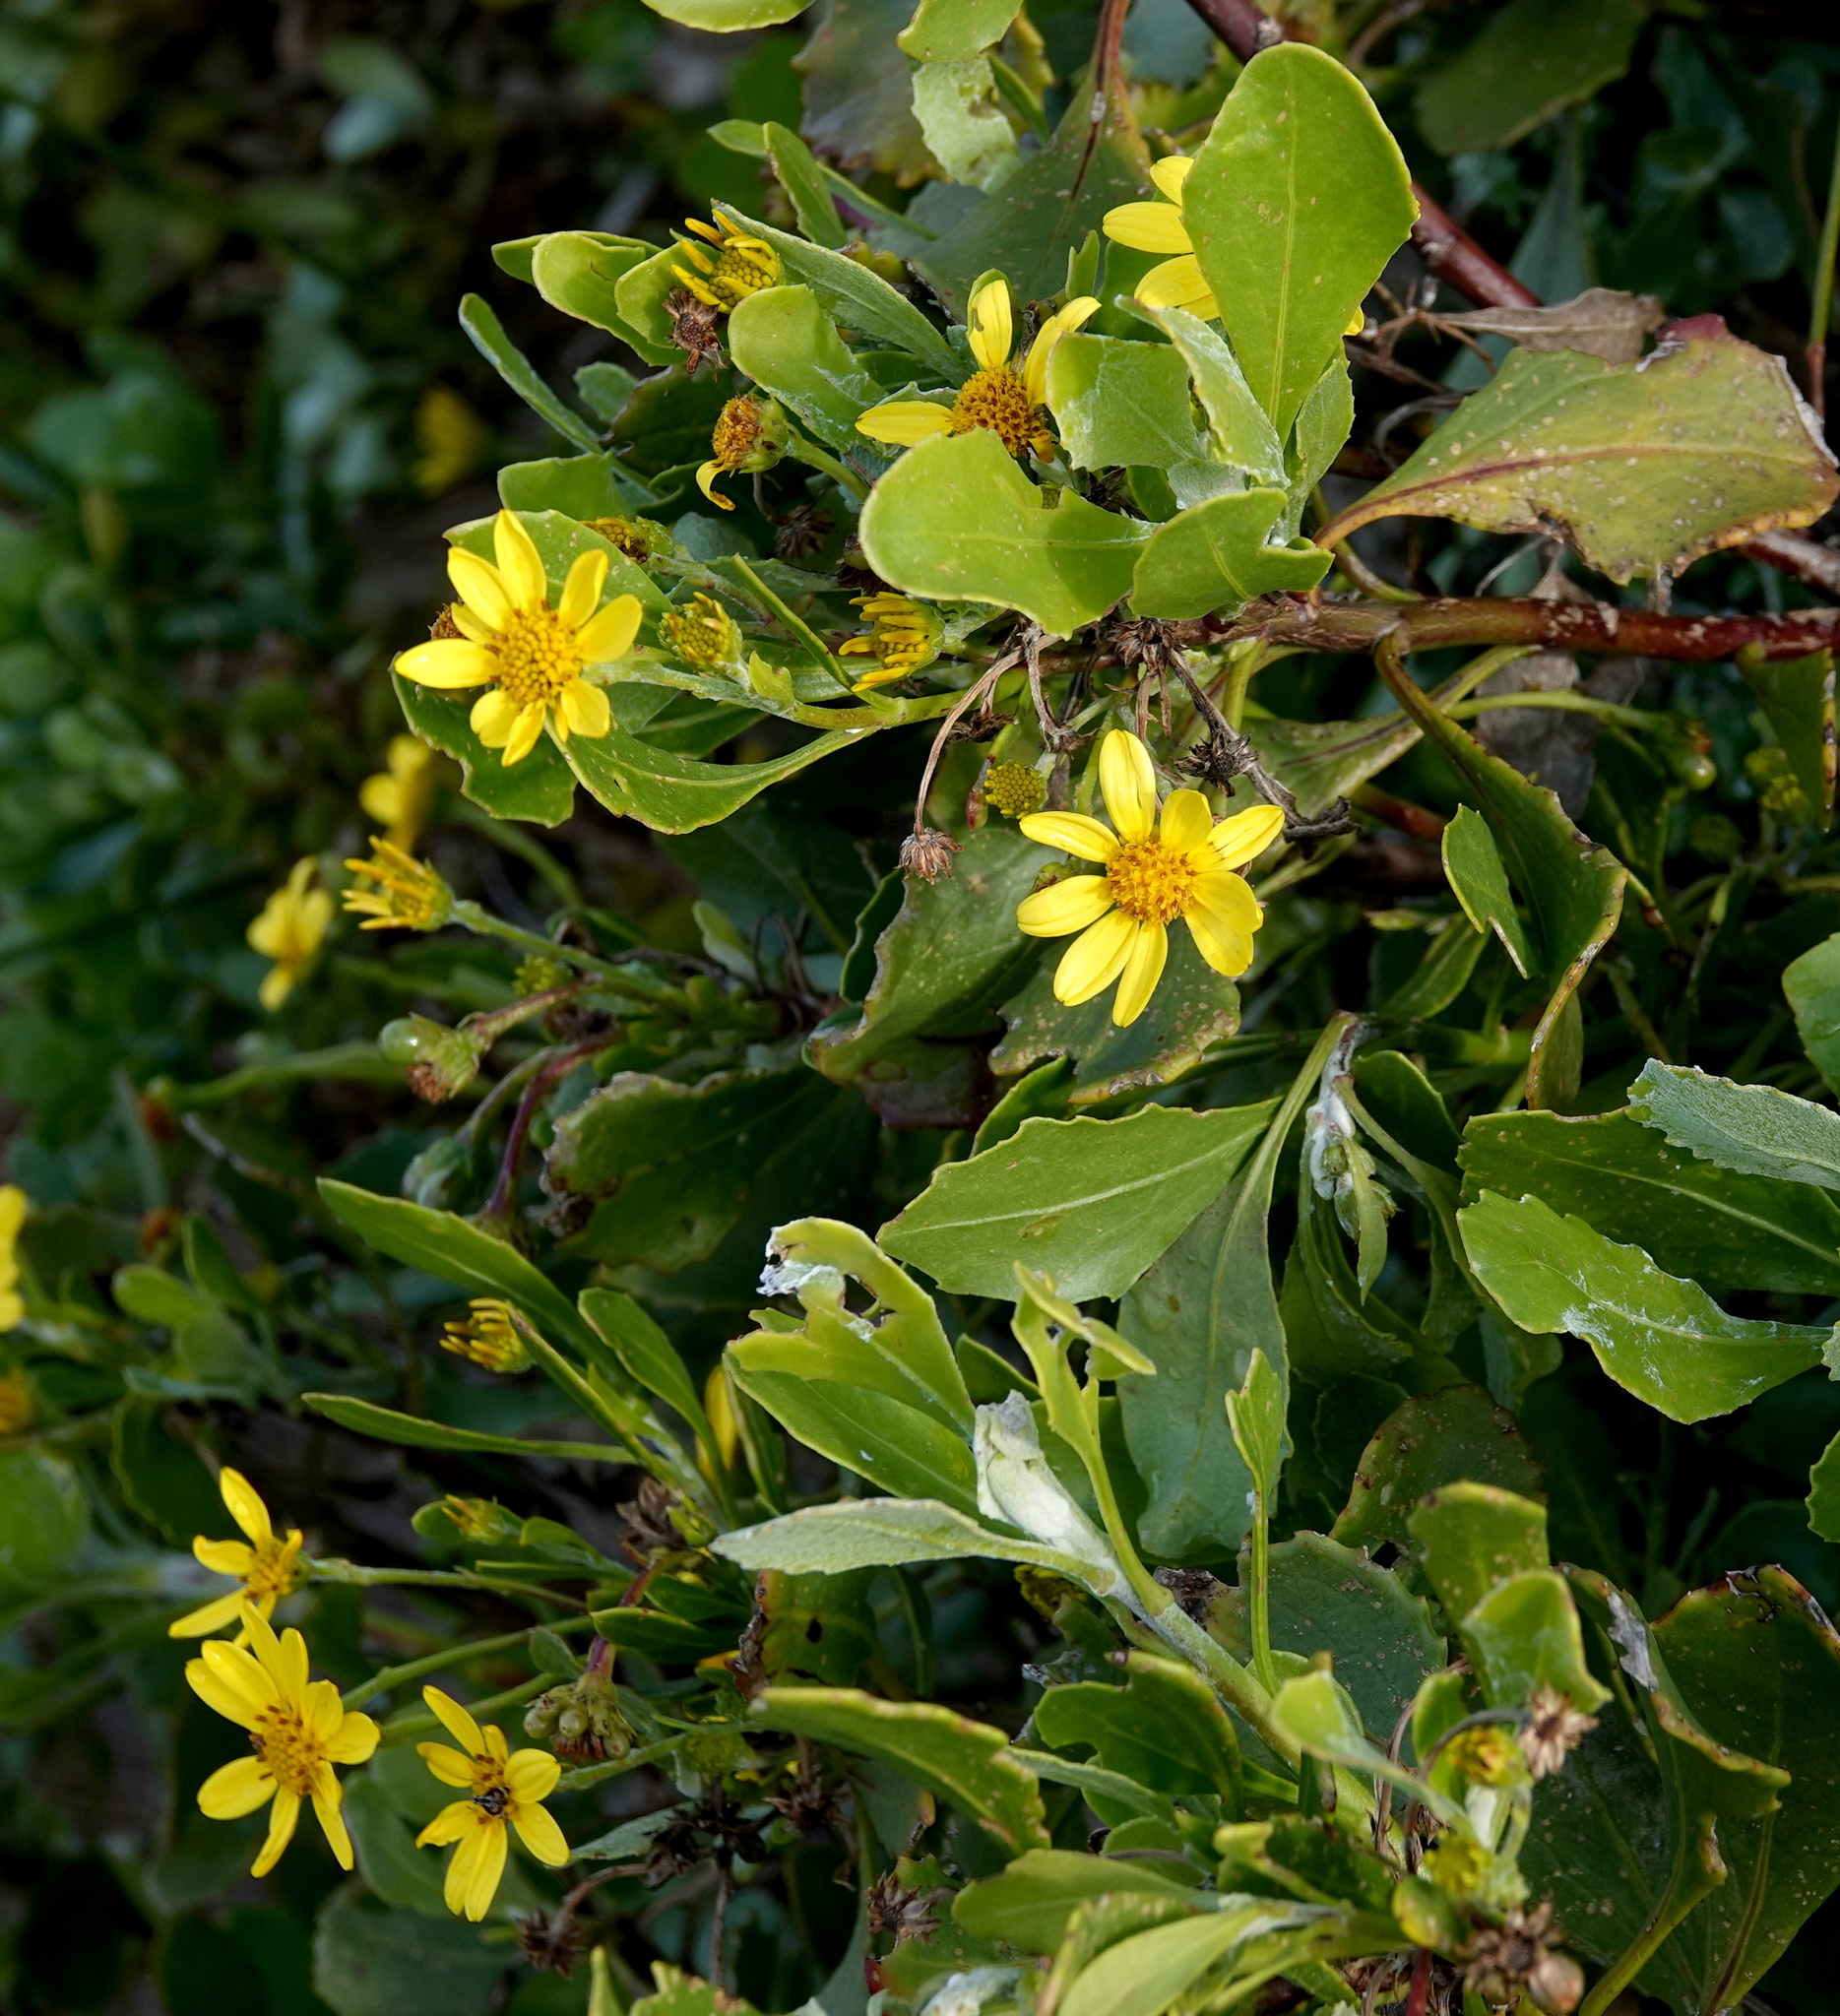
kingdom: Plantae
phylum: Tracheophyta
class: Magnoliopsida
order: Asterales
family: Asteraceae
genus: Osteospermum
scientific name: Osteospermum moniliferum
